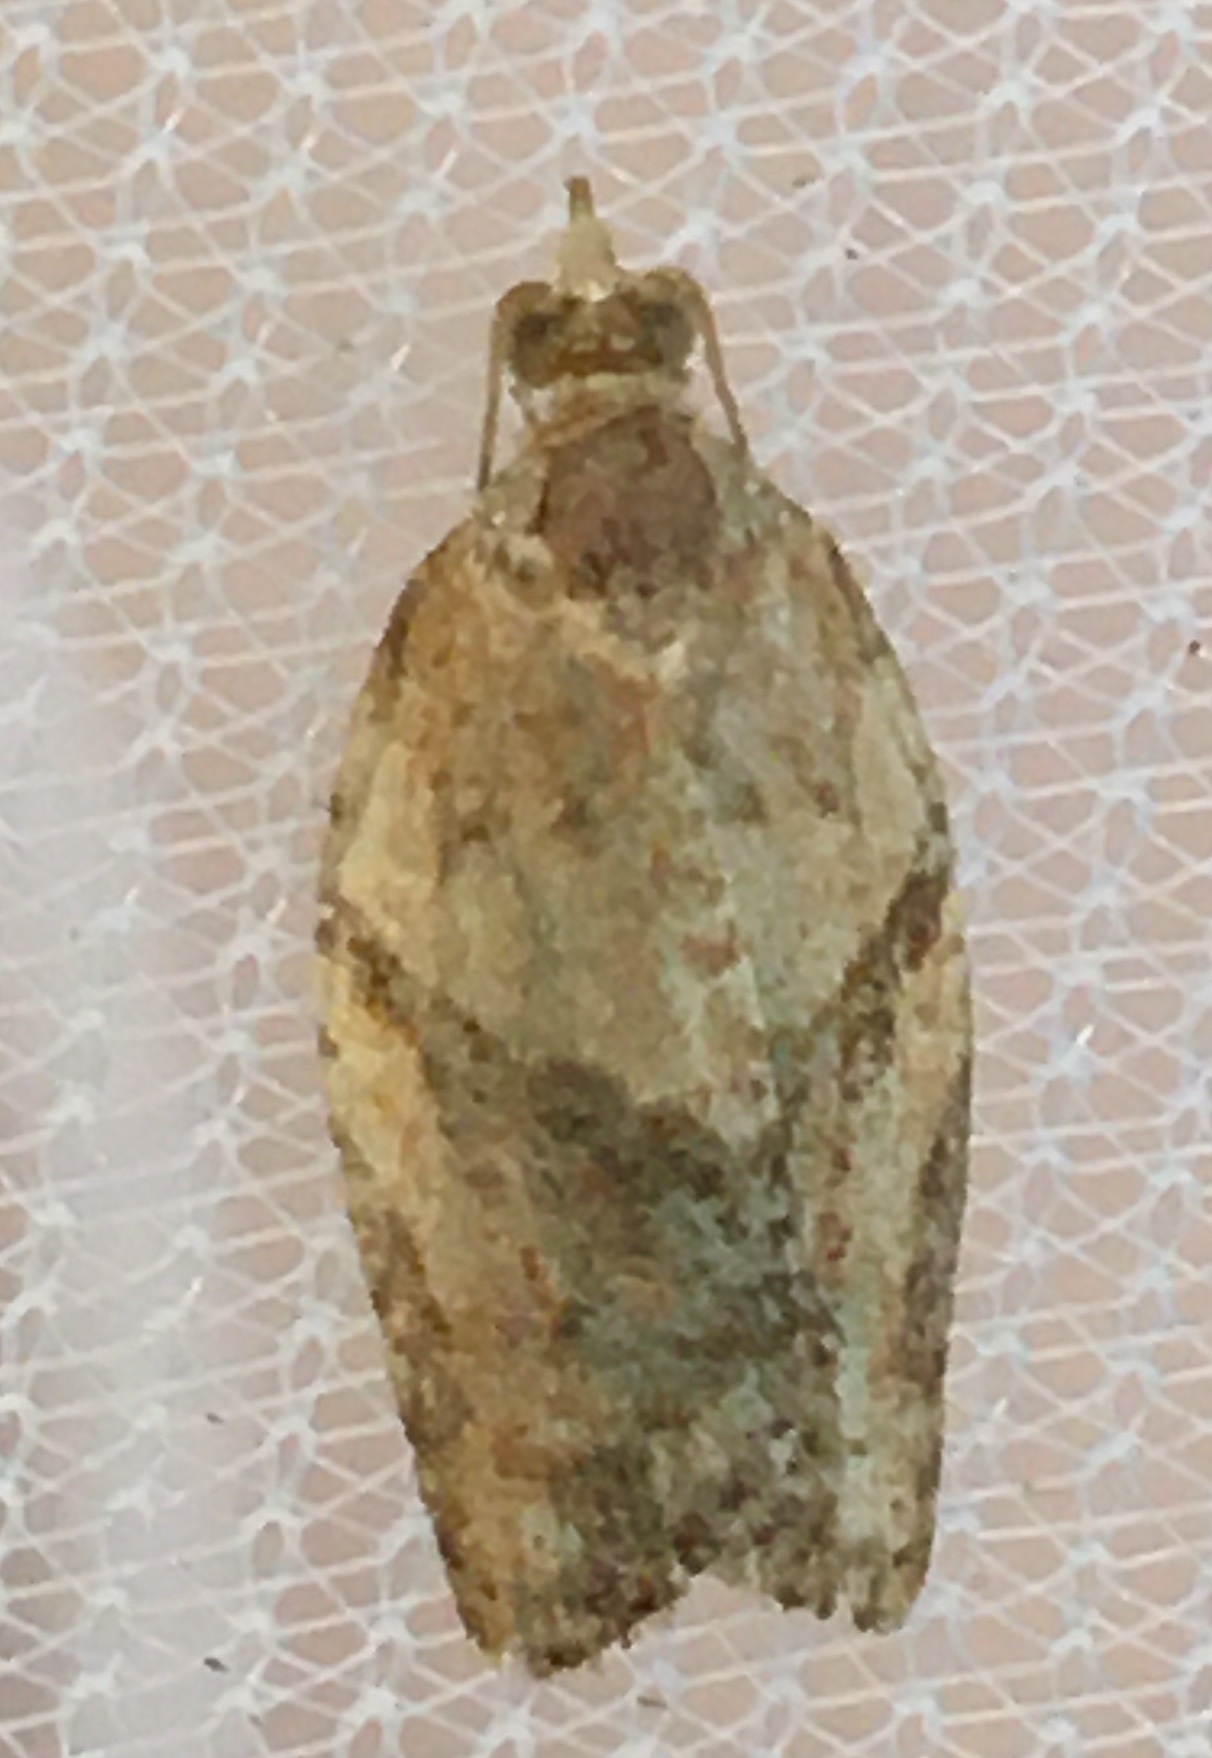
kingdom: Animalia
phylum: Arthropoda
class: Insecta
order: Lepidoptera
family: Tortricidae
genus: Epiphyas
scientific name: Epiphyas postvittana
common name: Light brown apple moth
